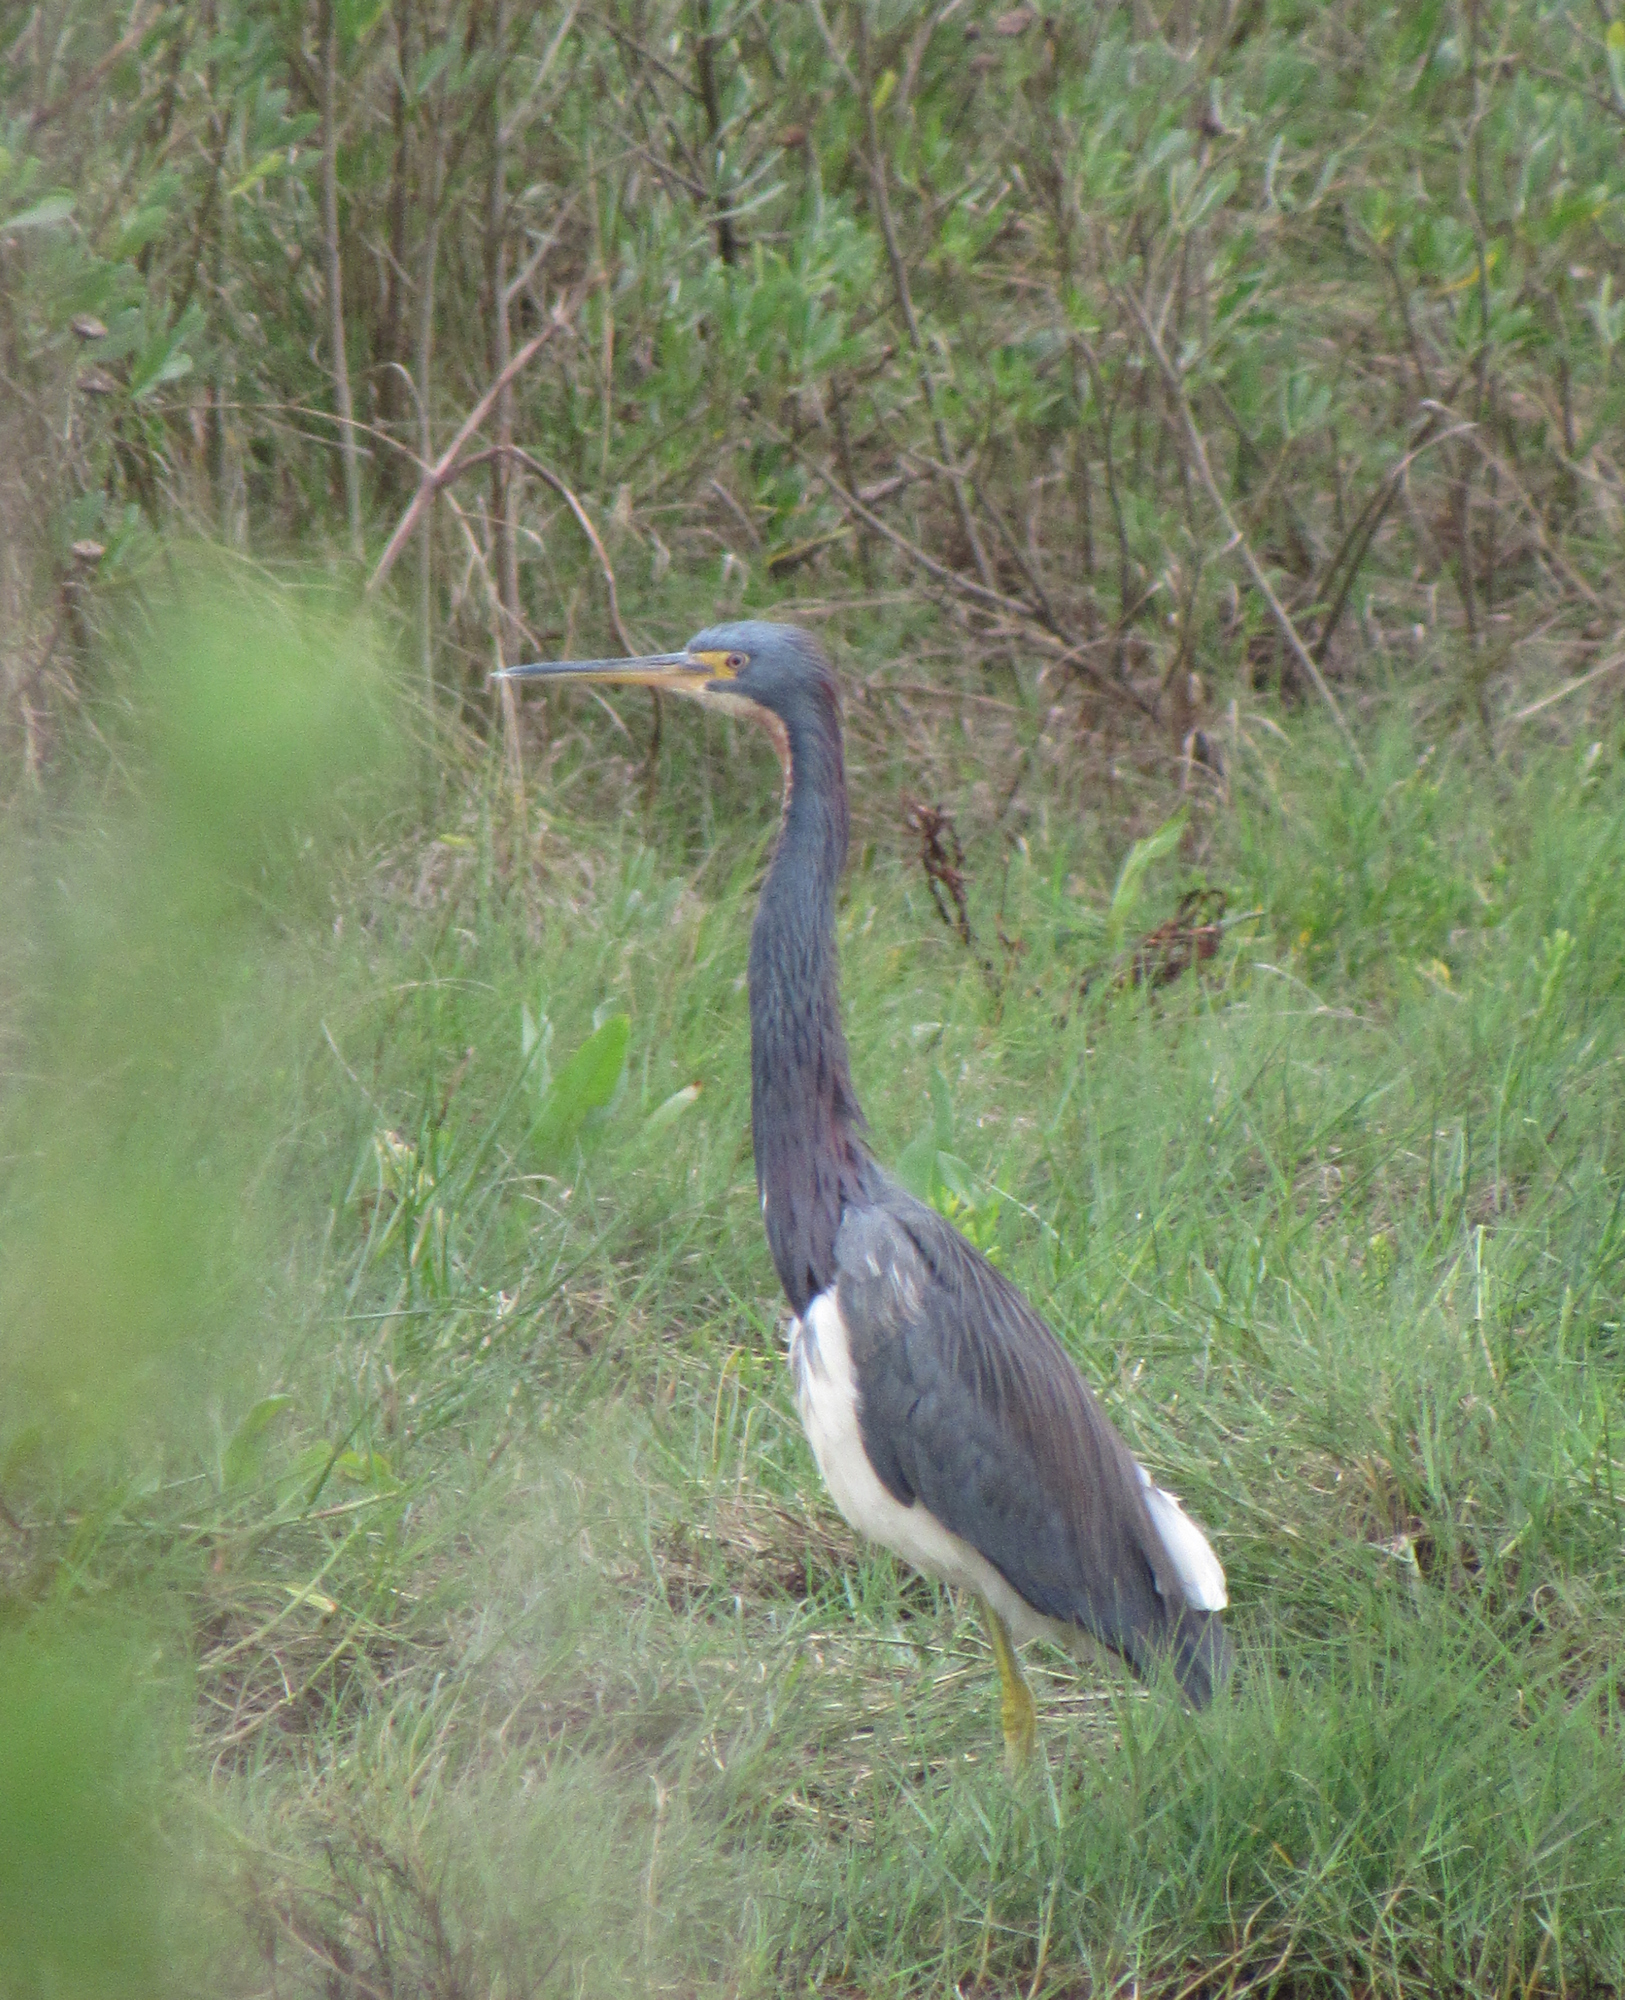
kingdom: Animalia
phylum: Chordata
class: Aves
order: Pelecaniformes
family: Ardeidae
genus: Egretta
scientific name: Egretta tricolor
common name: Tricolored heron
